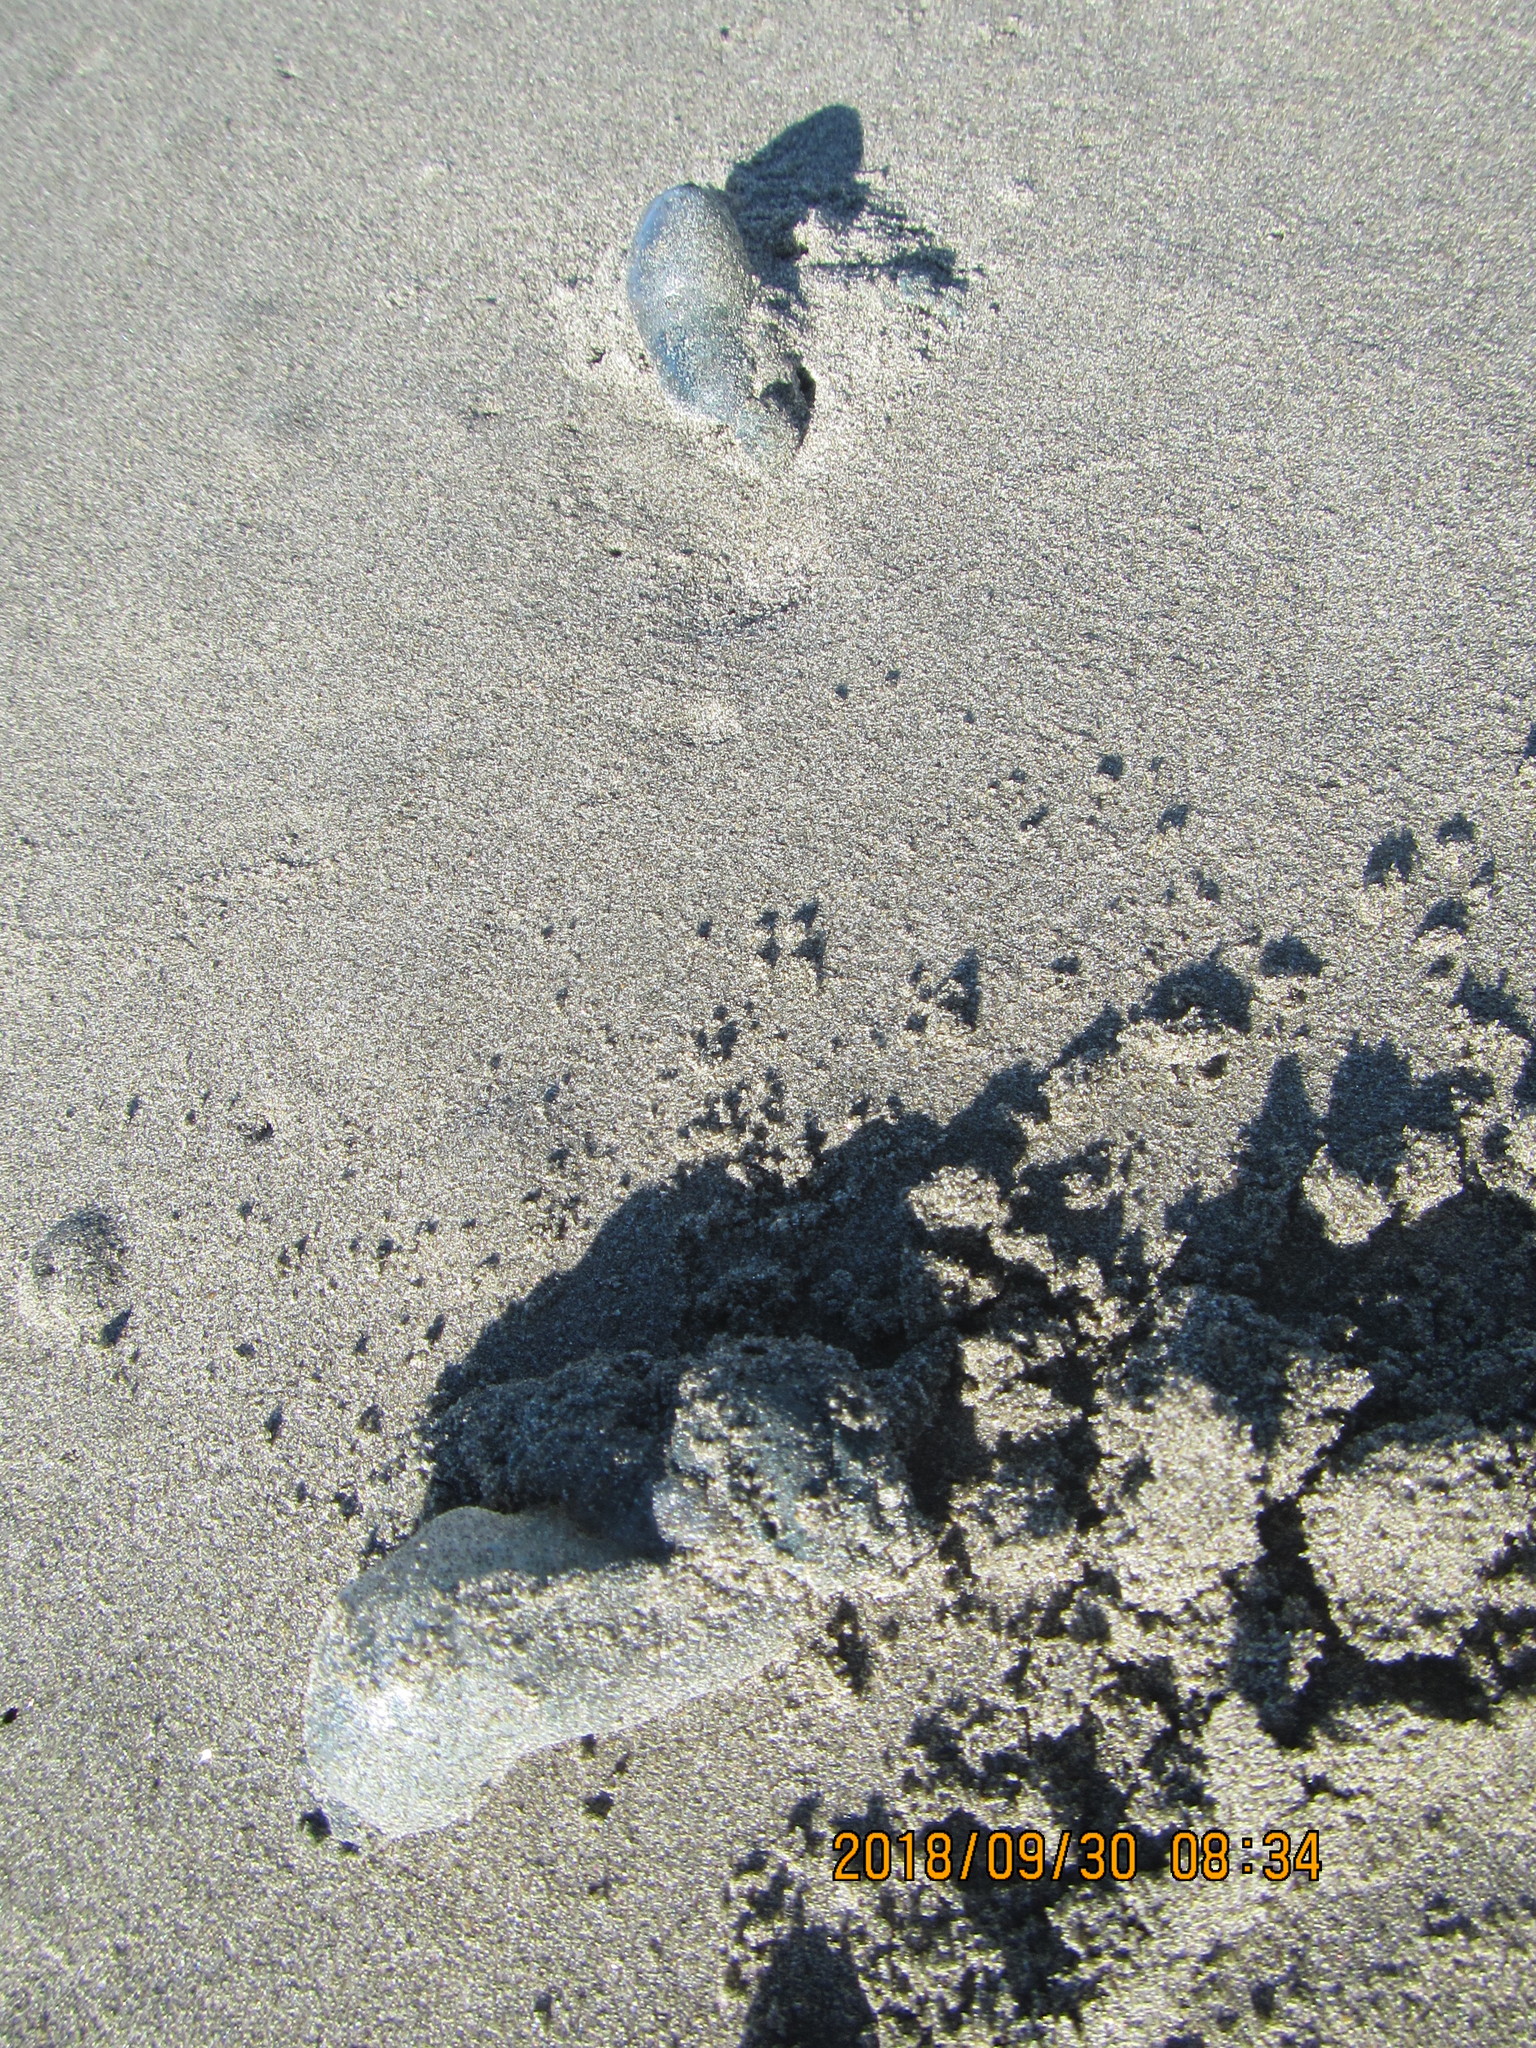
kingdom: Animalia
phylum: Cnidaria
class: Hydrozoa
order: Siphonophorae
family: Physaliidae
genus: Physalia
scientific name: Physalia physalis
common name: Portuguese man-of-war
